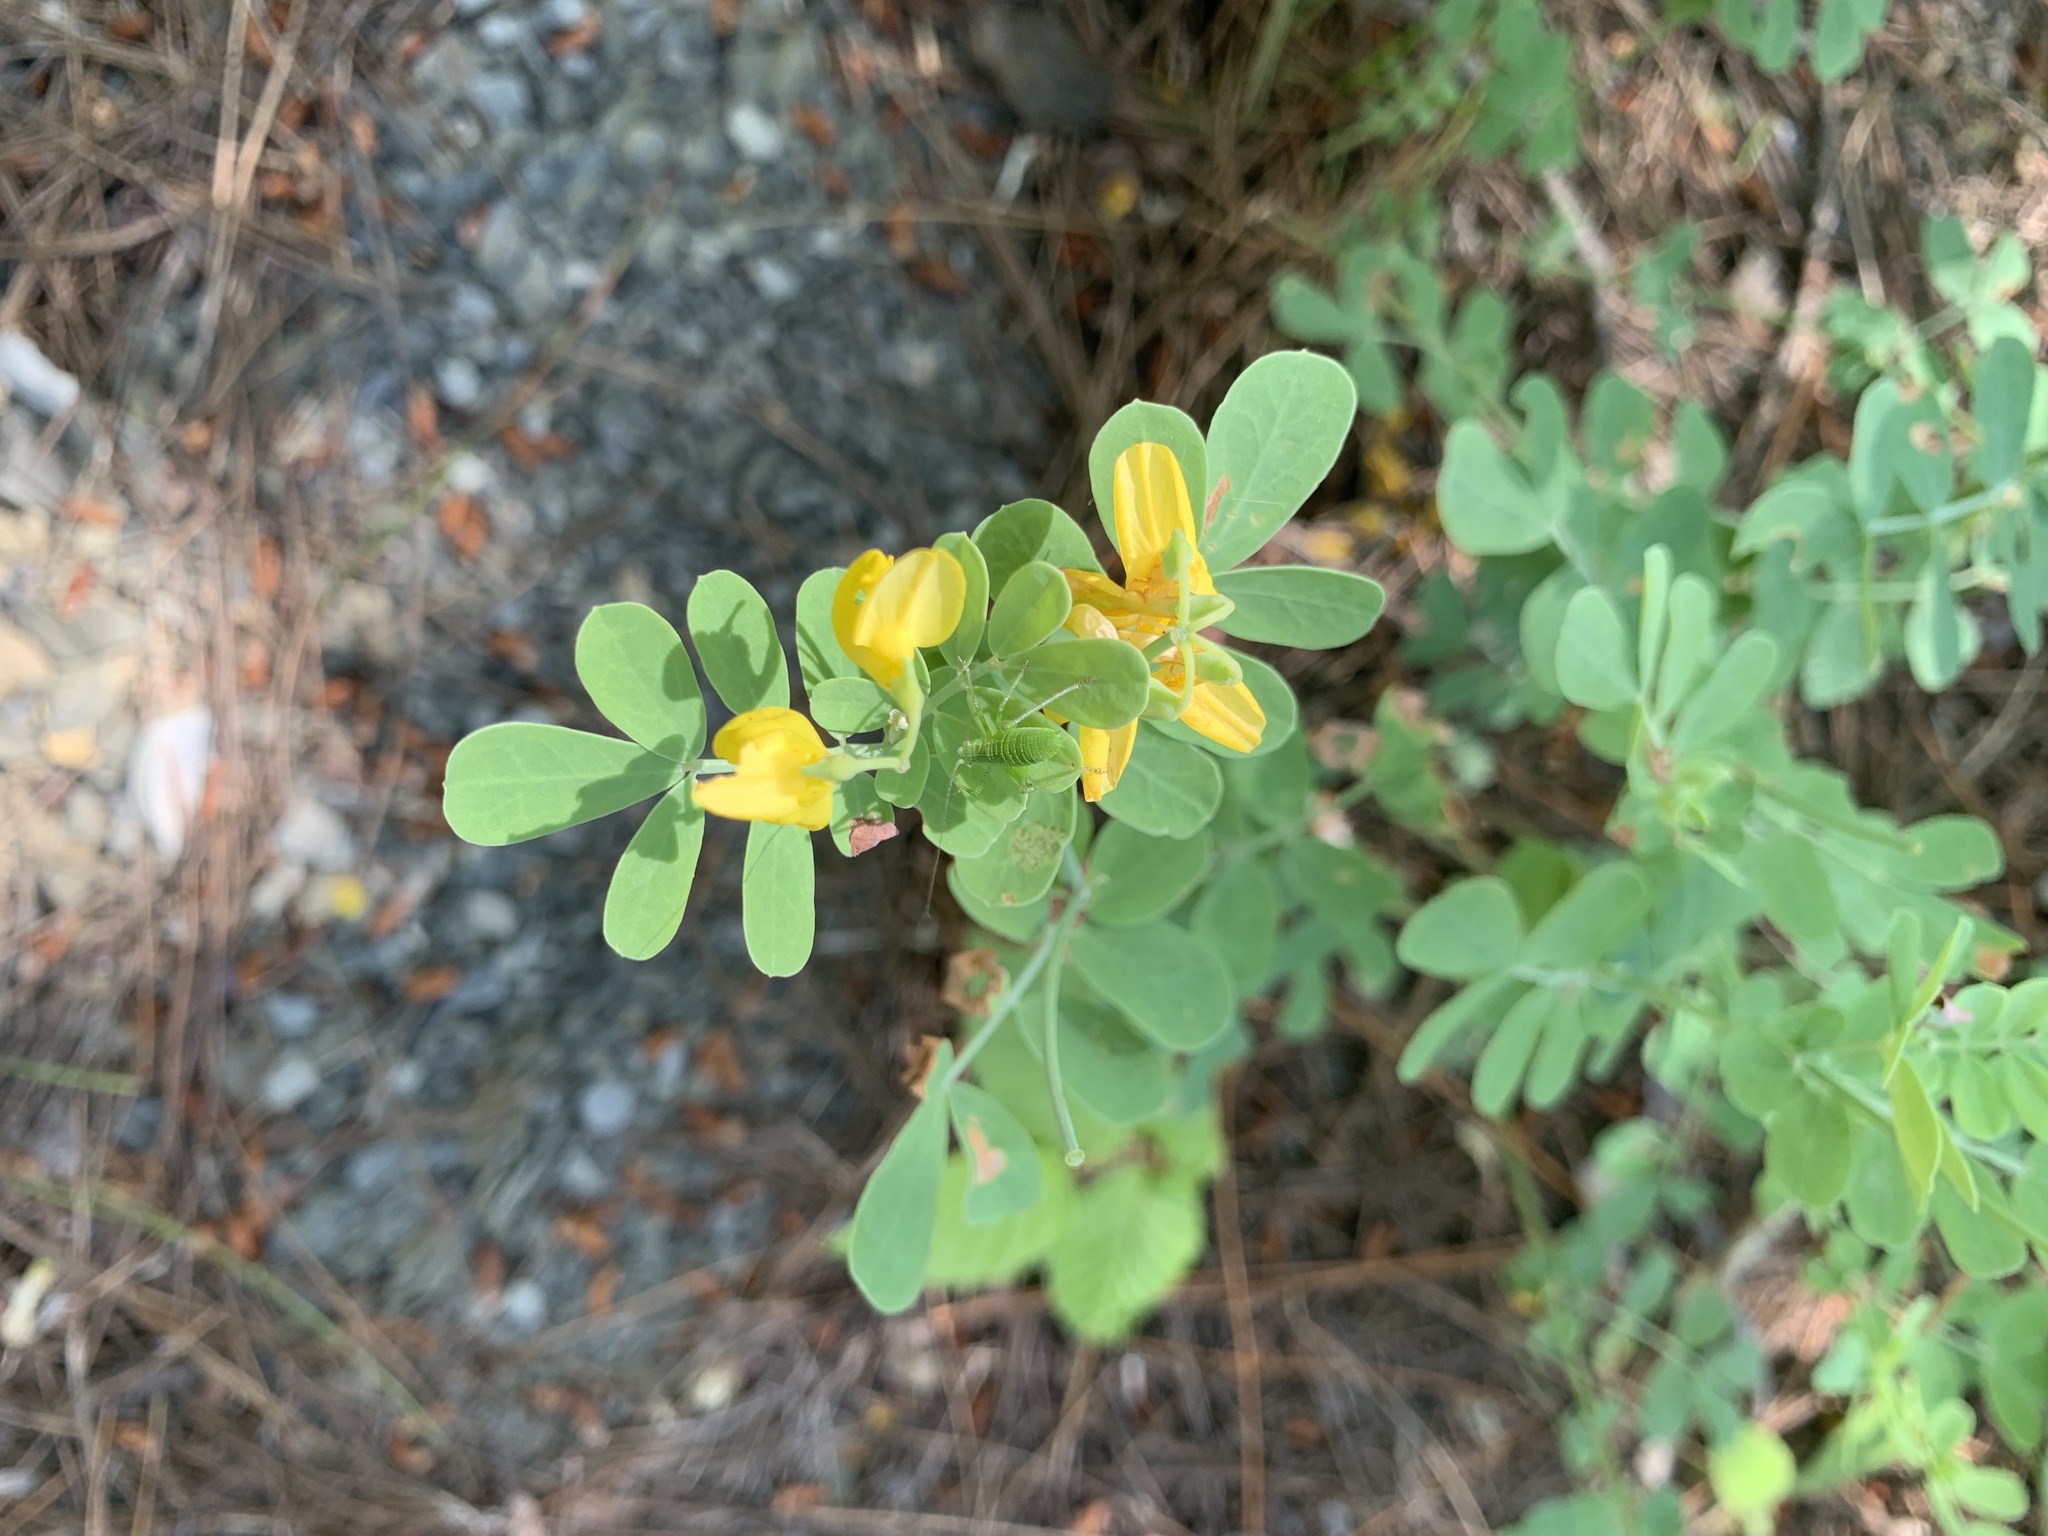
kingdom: Plantae
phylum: Tracheophyta
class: Magnoliopsida
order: Fabales
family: Fabaceae
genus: Coronilla
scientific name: Coronilla coronata
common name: Scorpion-vetch
